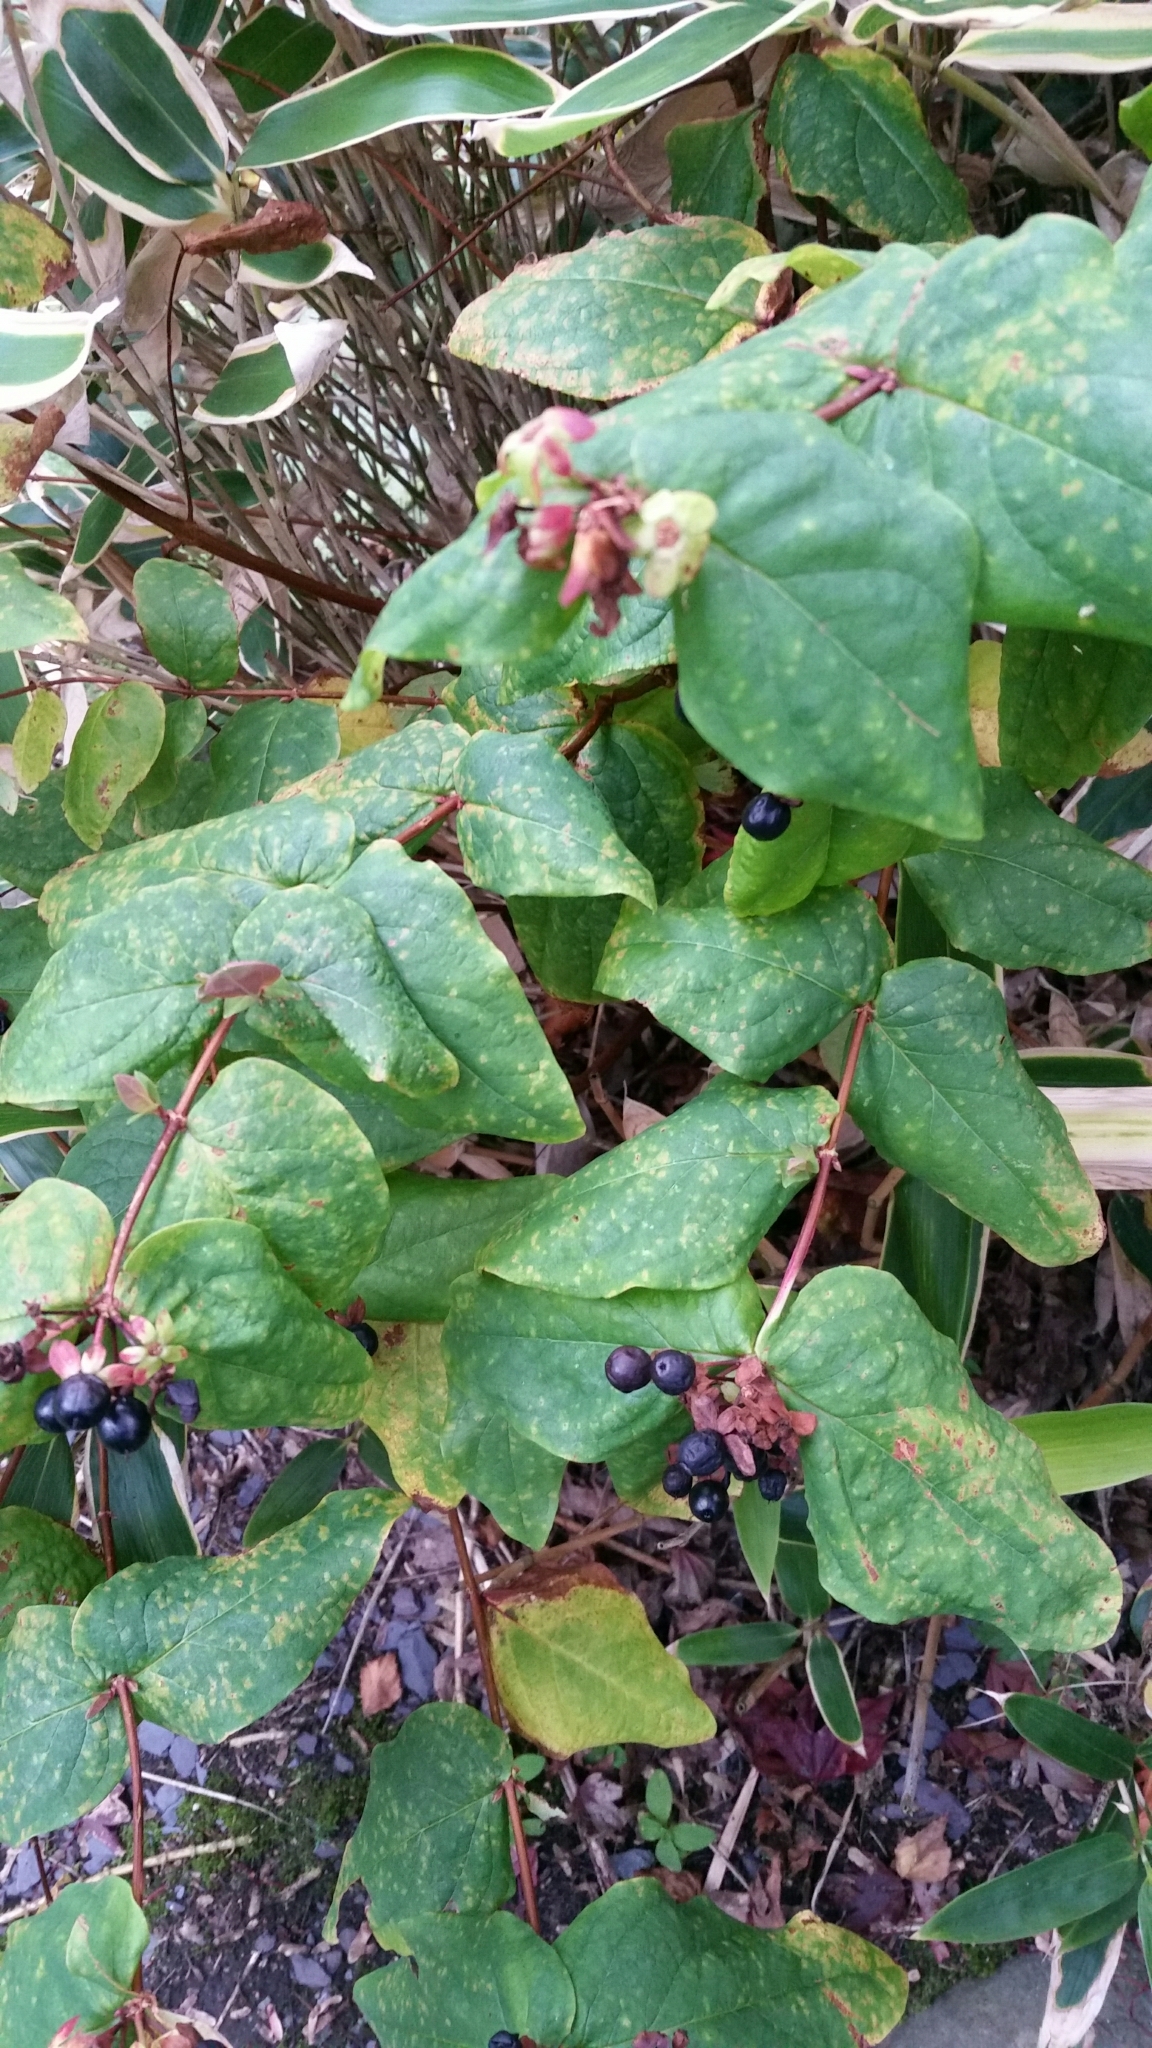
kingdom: Plantae
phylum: Tracheophyta
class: Magnoliopsida
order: Malpighiales
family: Hypericaceae
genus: Hypericum
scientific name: Hypericum androsaemum
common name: Sweet-amber
